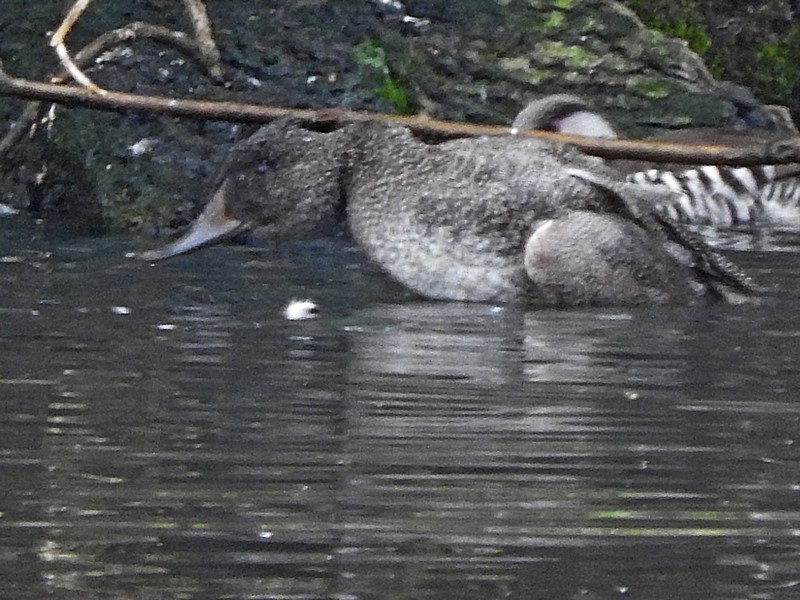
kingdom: Animalia
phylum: Chordata
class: Aves
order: Anseriformes
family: Anatidae
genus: Stictonetta
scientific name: Stictonetta naevosa
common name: Freckled duck
